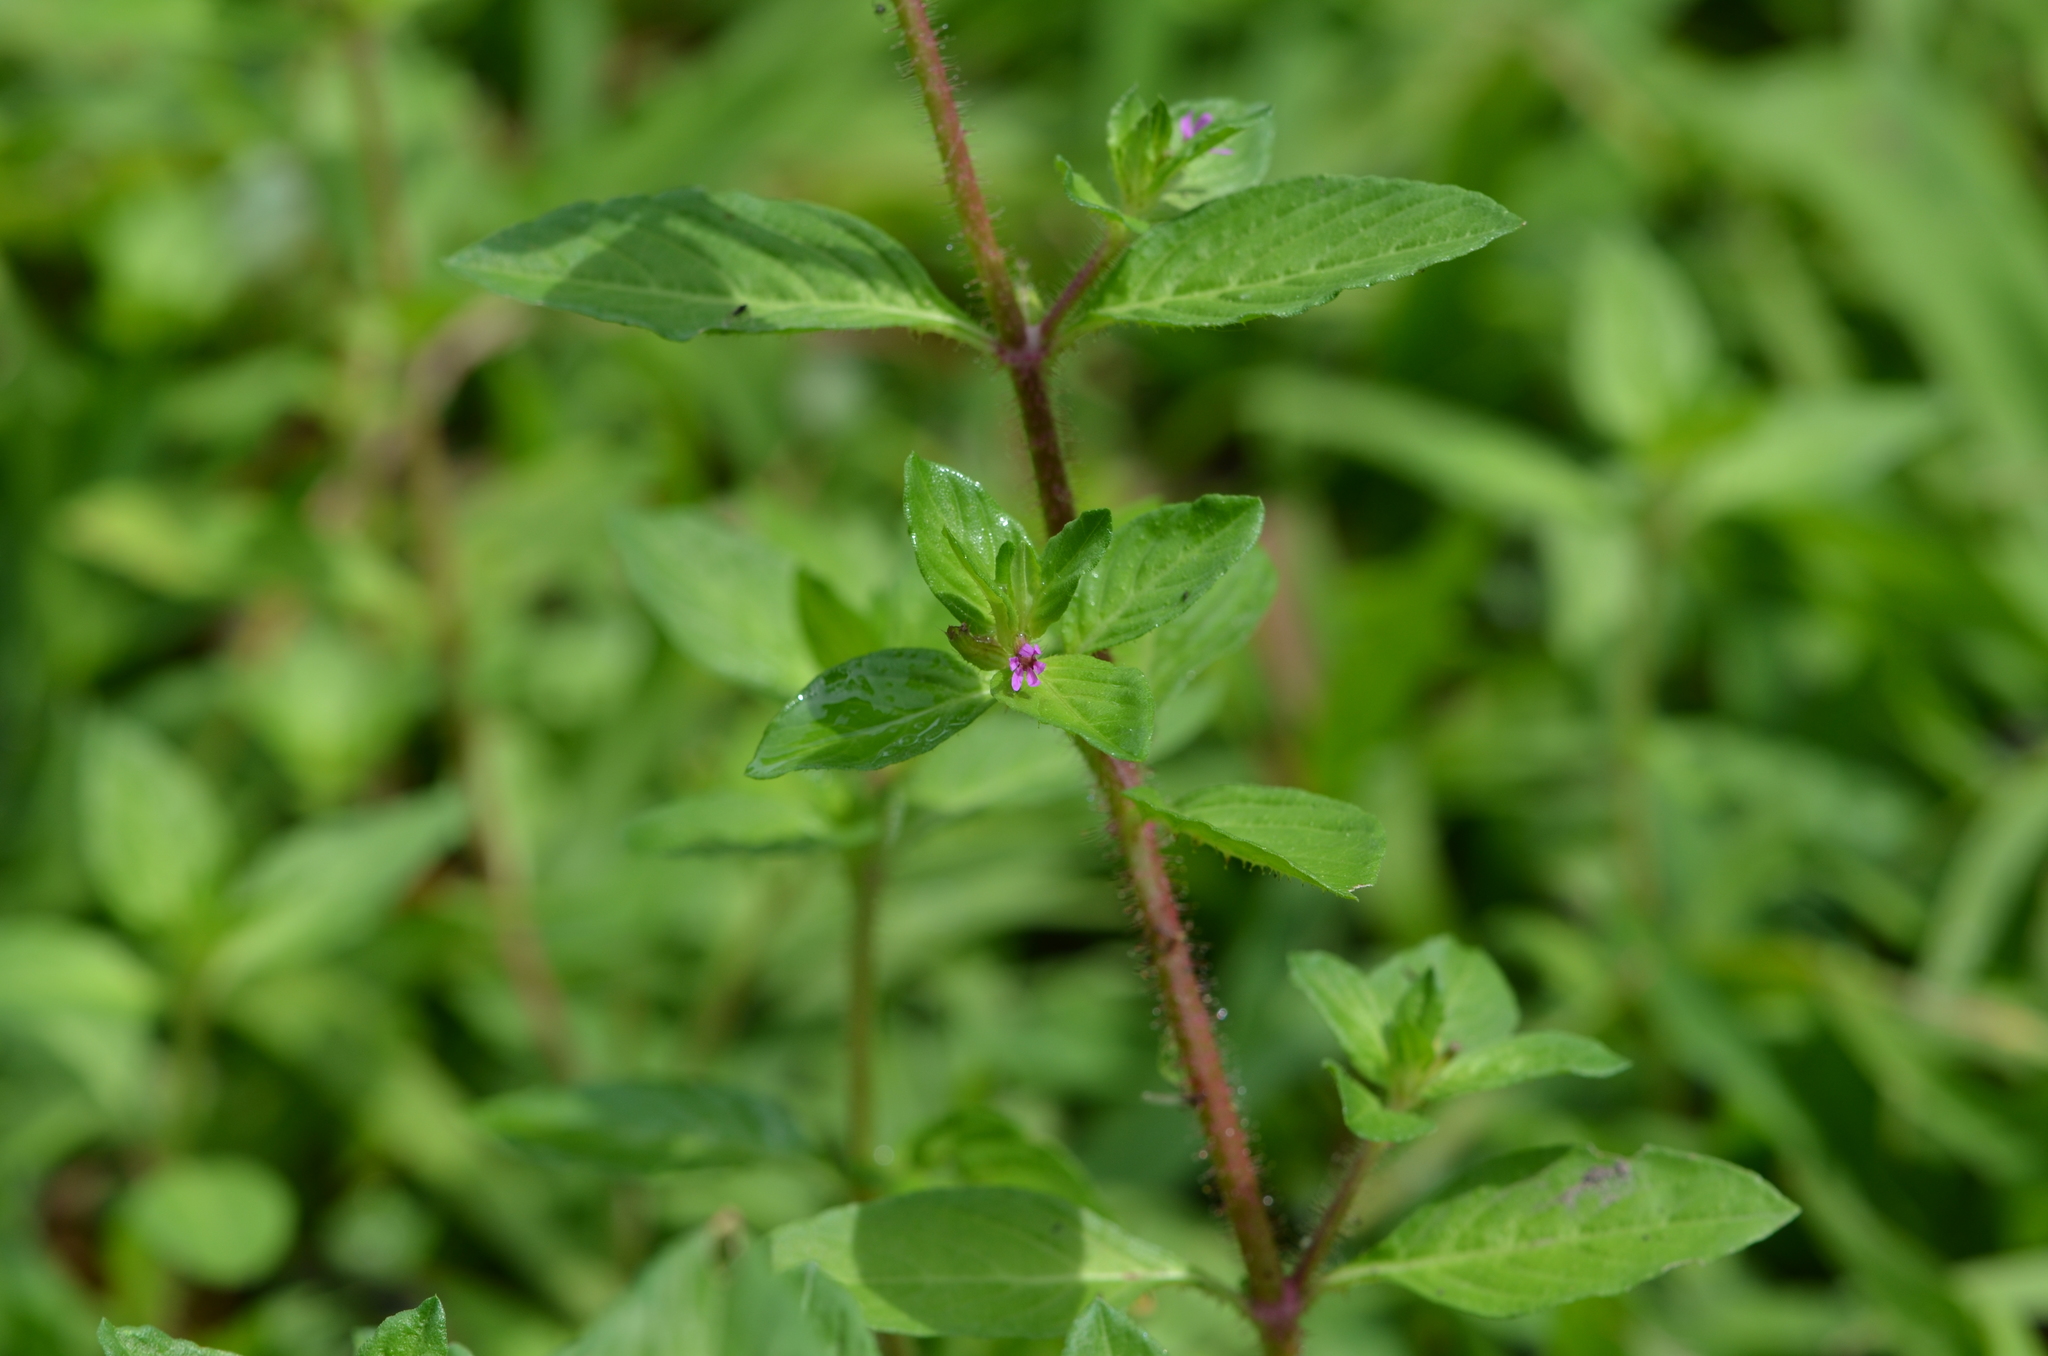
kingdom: Plantae
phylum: Tracheophyta
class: Magnoliopsida
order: Myrtales
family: Lythraceae
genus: Cuphea
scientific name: Cuphea carthagenensis
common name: Colombian waxweed
